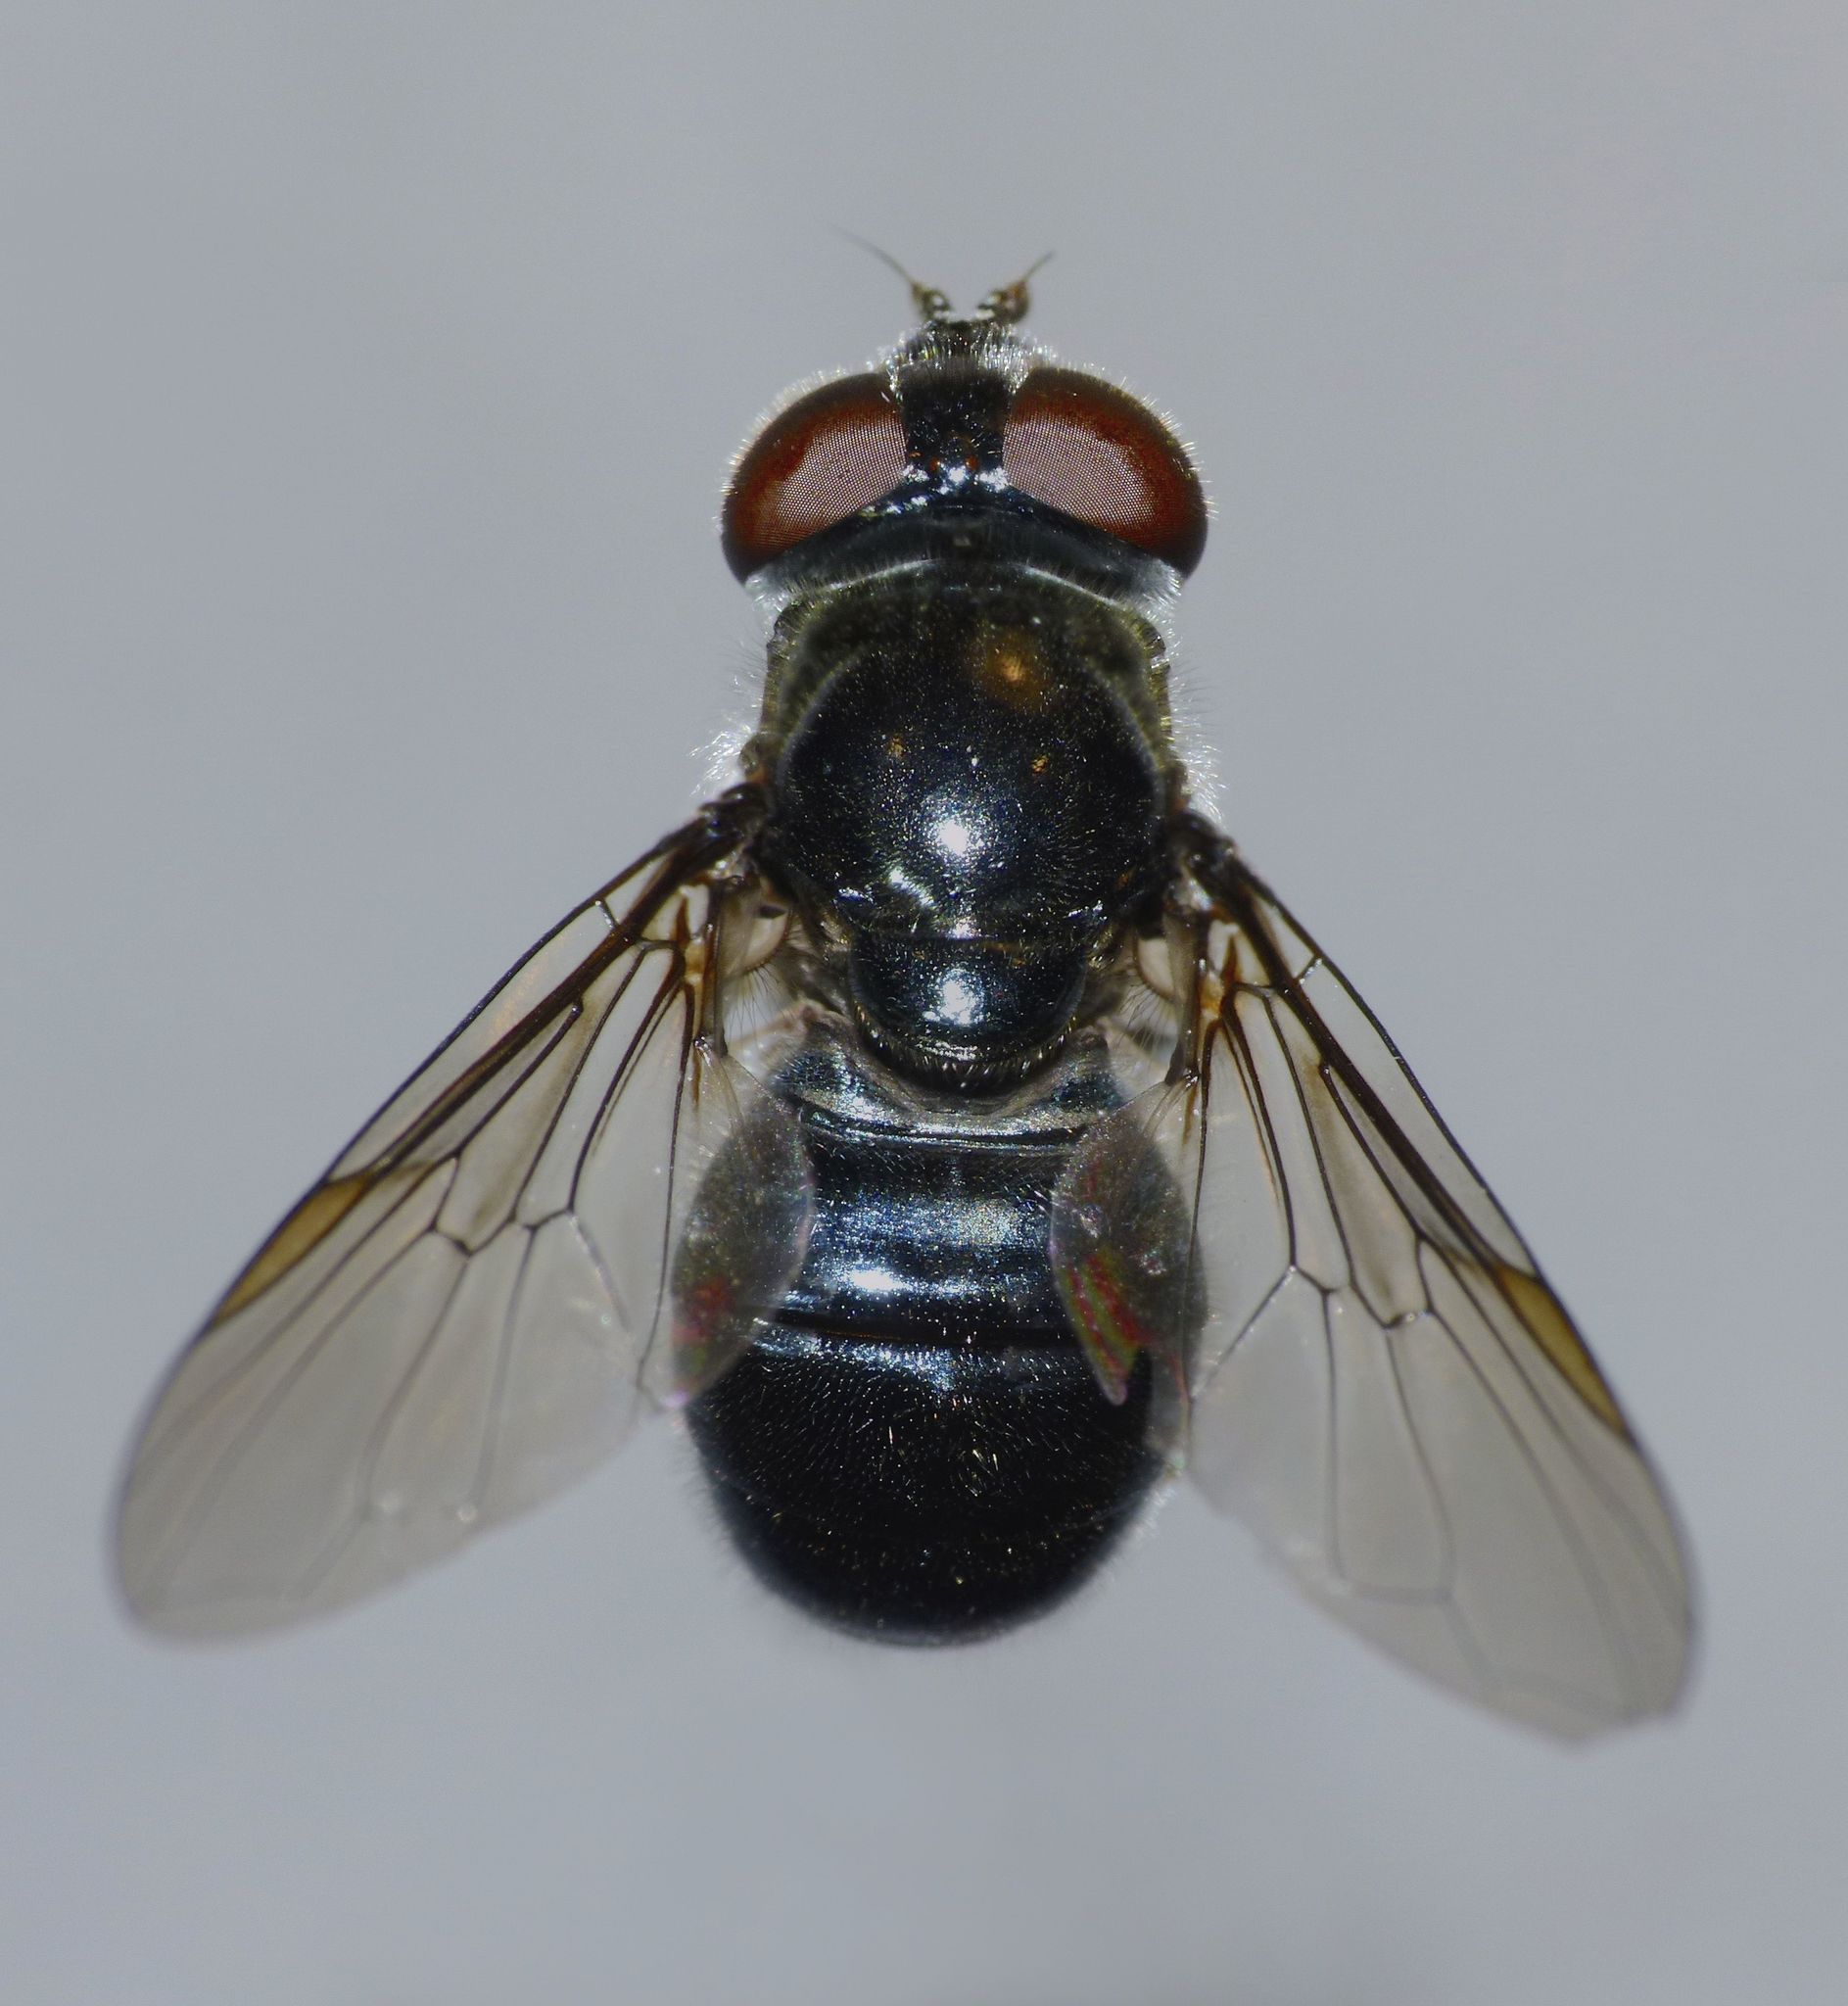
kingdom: Animalia
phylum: Arthropoda
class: Insecta
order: Diptera
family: Syrphidae
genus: Psilota
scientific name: Psilota decessum
